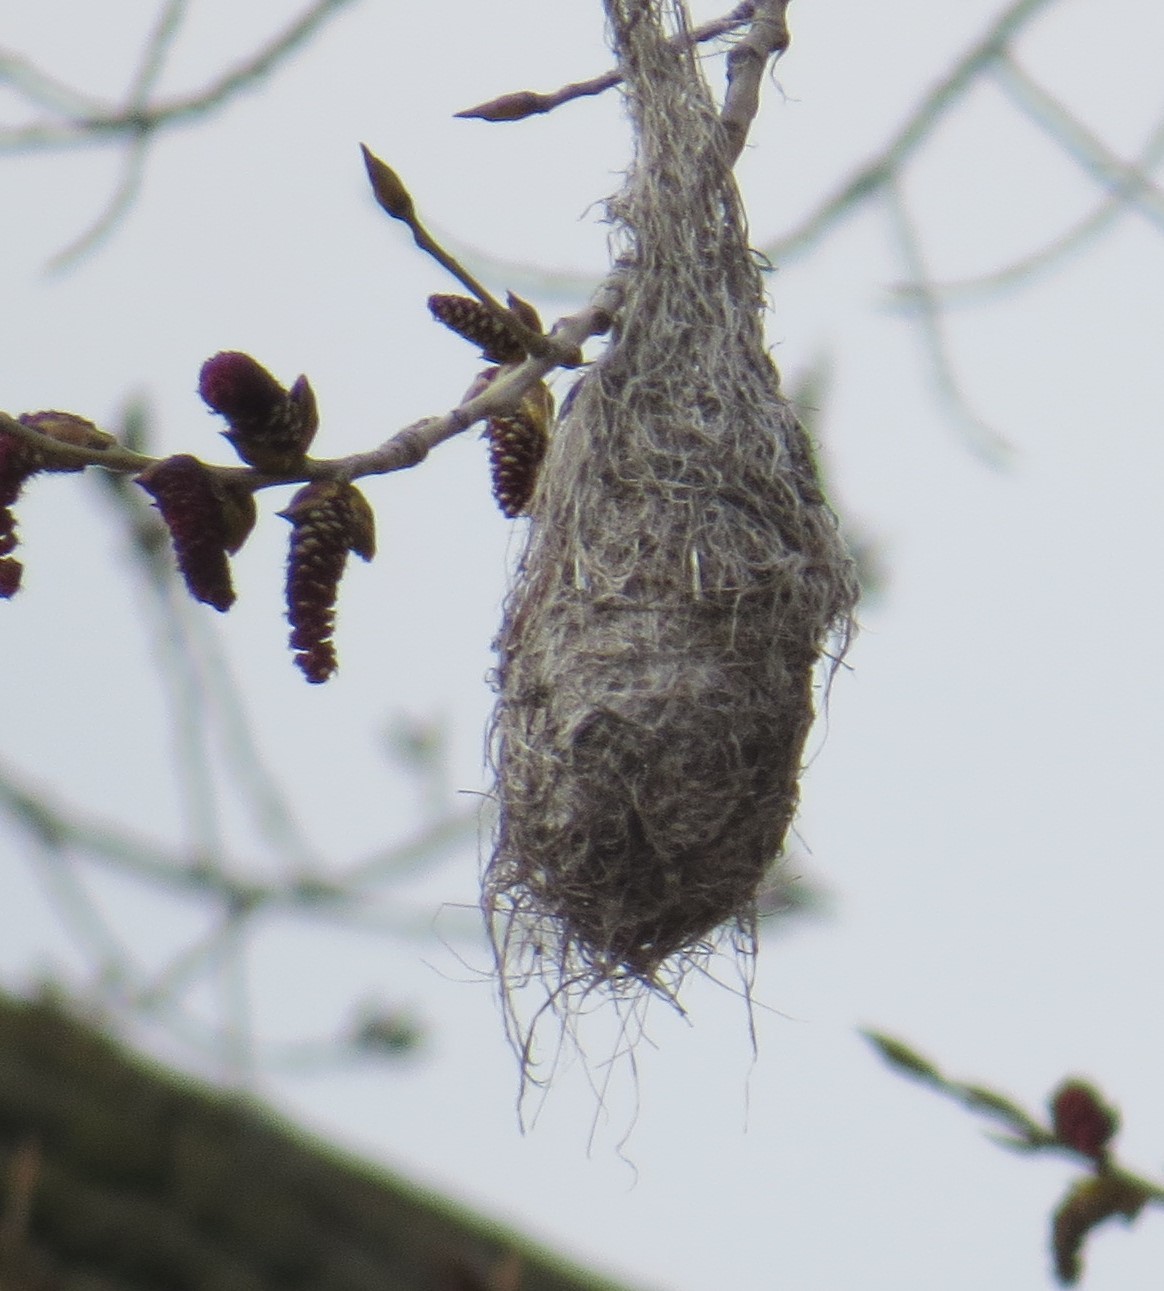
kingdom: Animalia
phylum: Chordata
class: Aves
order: Passeriformes
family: Icteridae
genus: Icterus
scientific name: Icterus galbula
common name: Baltimore oriole
